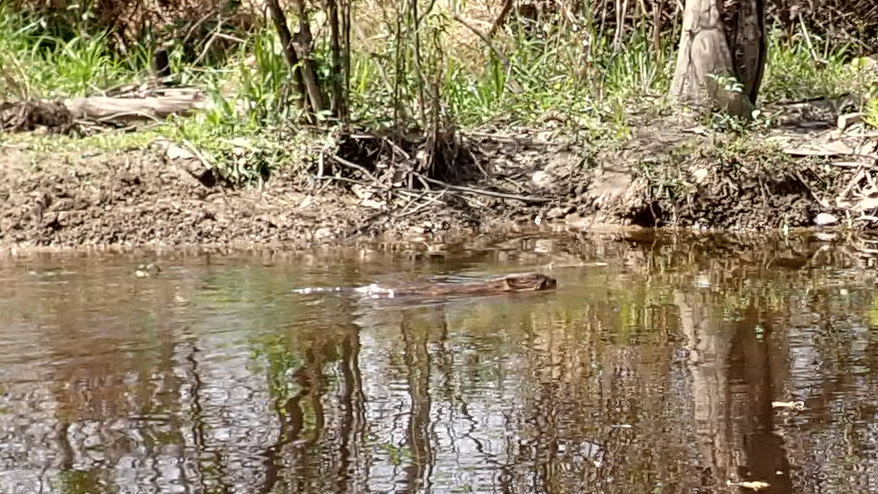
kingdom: Animalia
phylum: Chordata
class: Mammalia
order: Rodentia
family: Cricetidae
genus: Ondatra
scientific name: Ondatra zibethicus
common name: Muskrat
